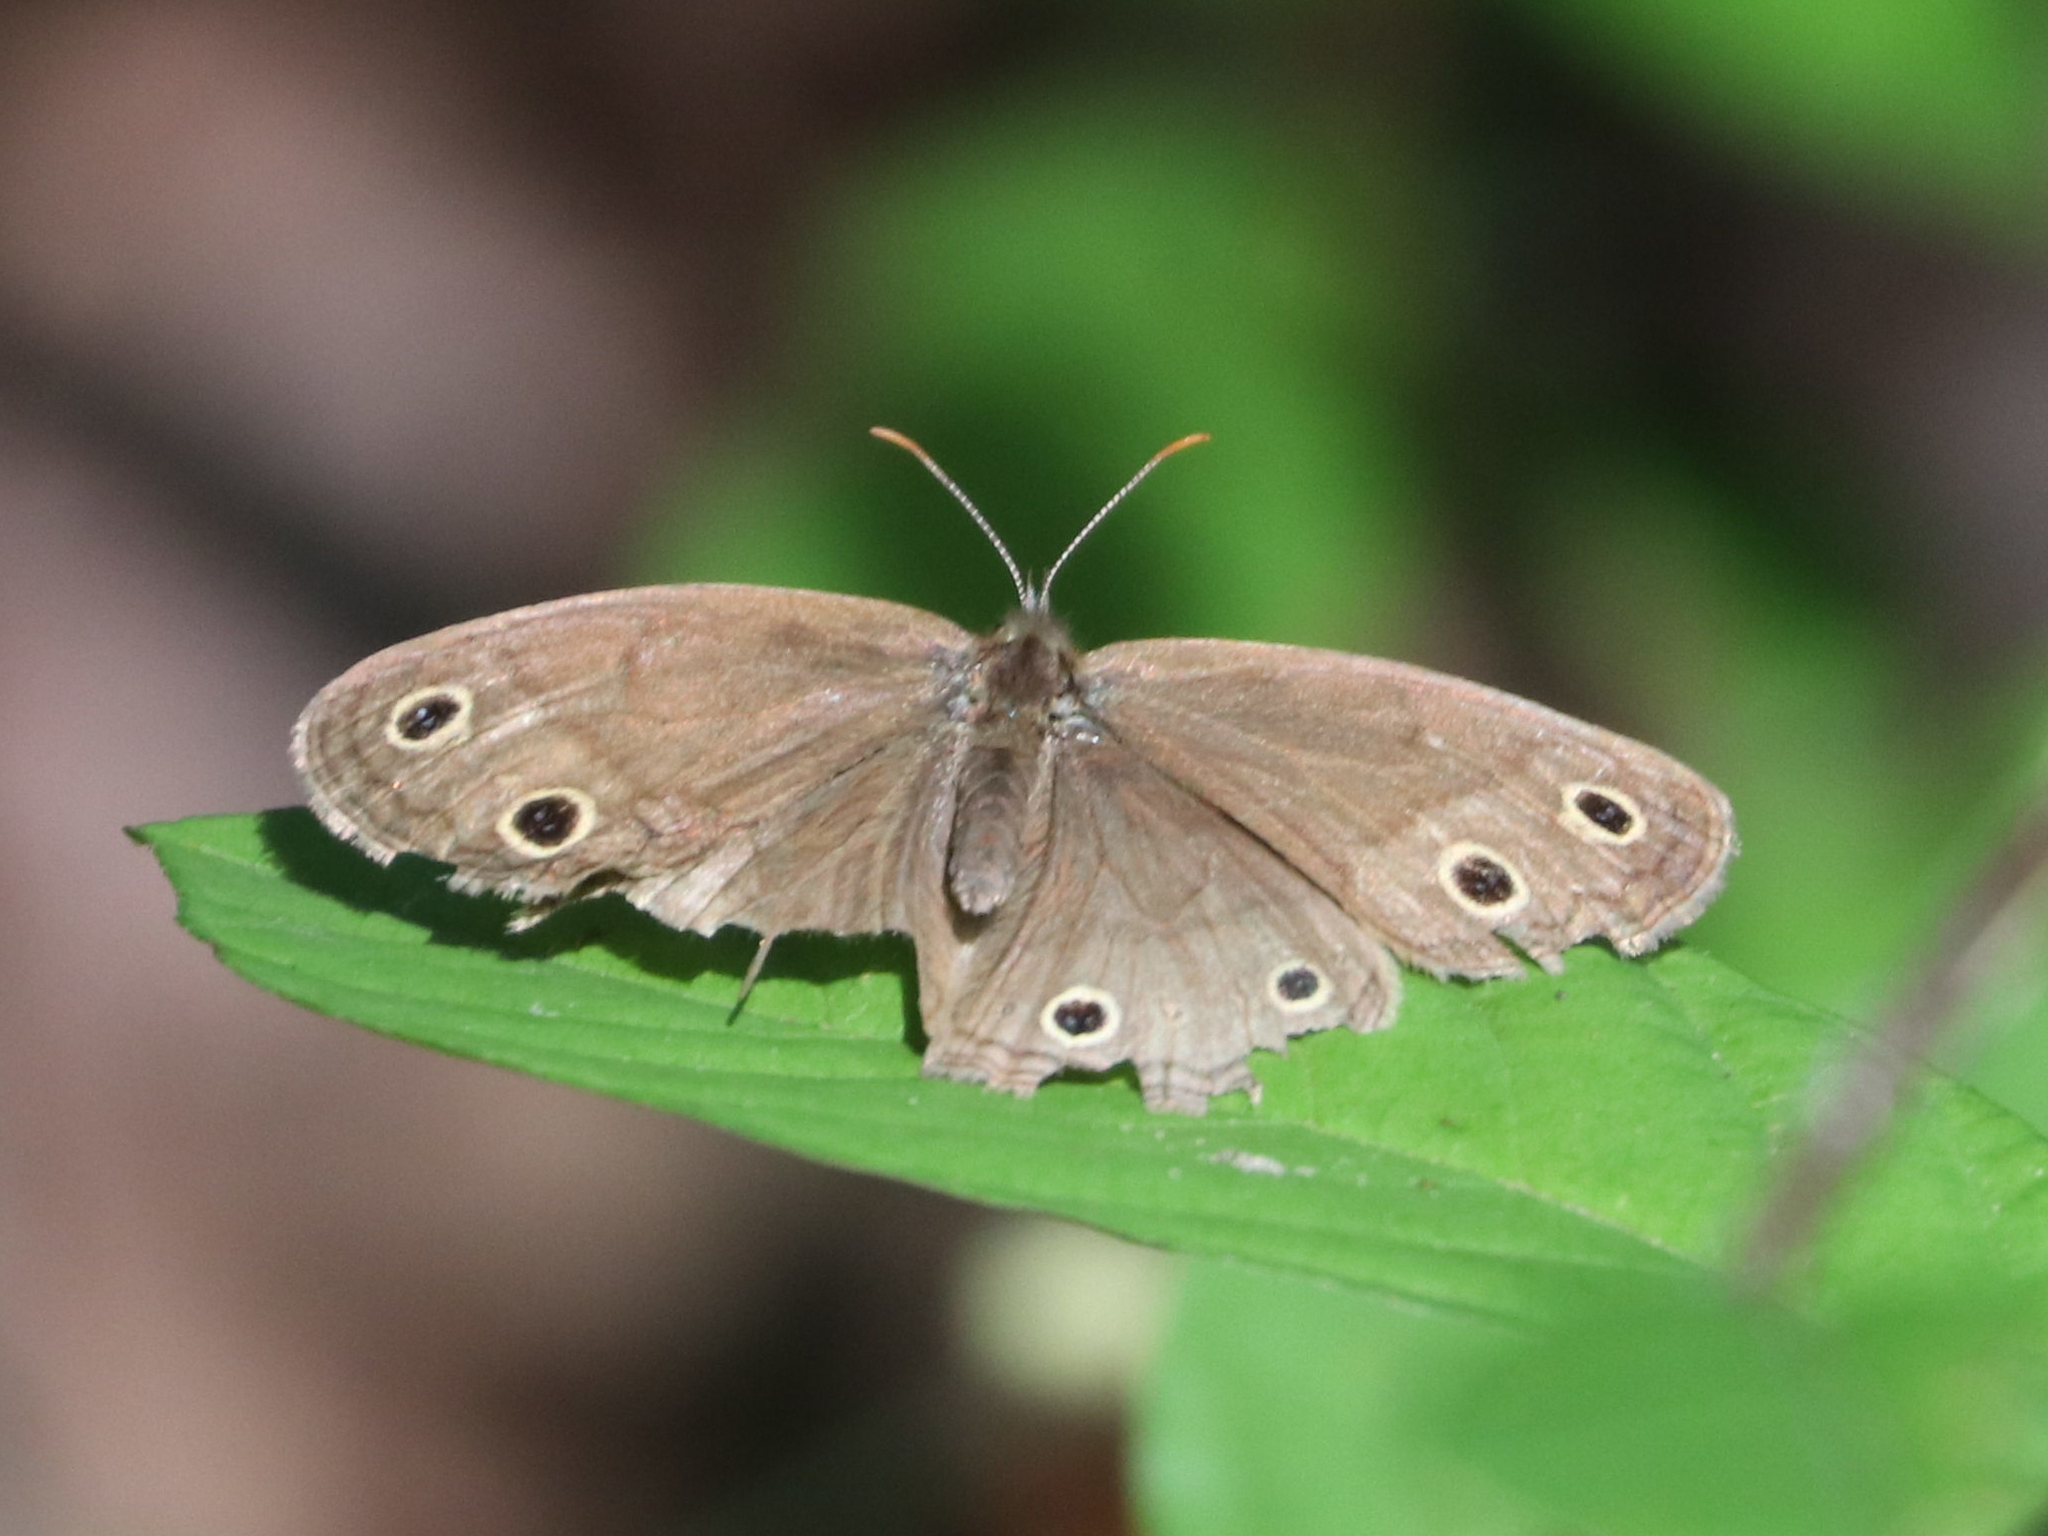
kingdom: Animalia
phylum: Arthropoda
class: Insecta
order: Lepidoptera
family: Nymphalidae
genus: Euptychia
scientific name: Euptychia cymela
